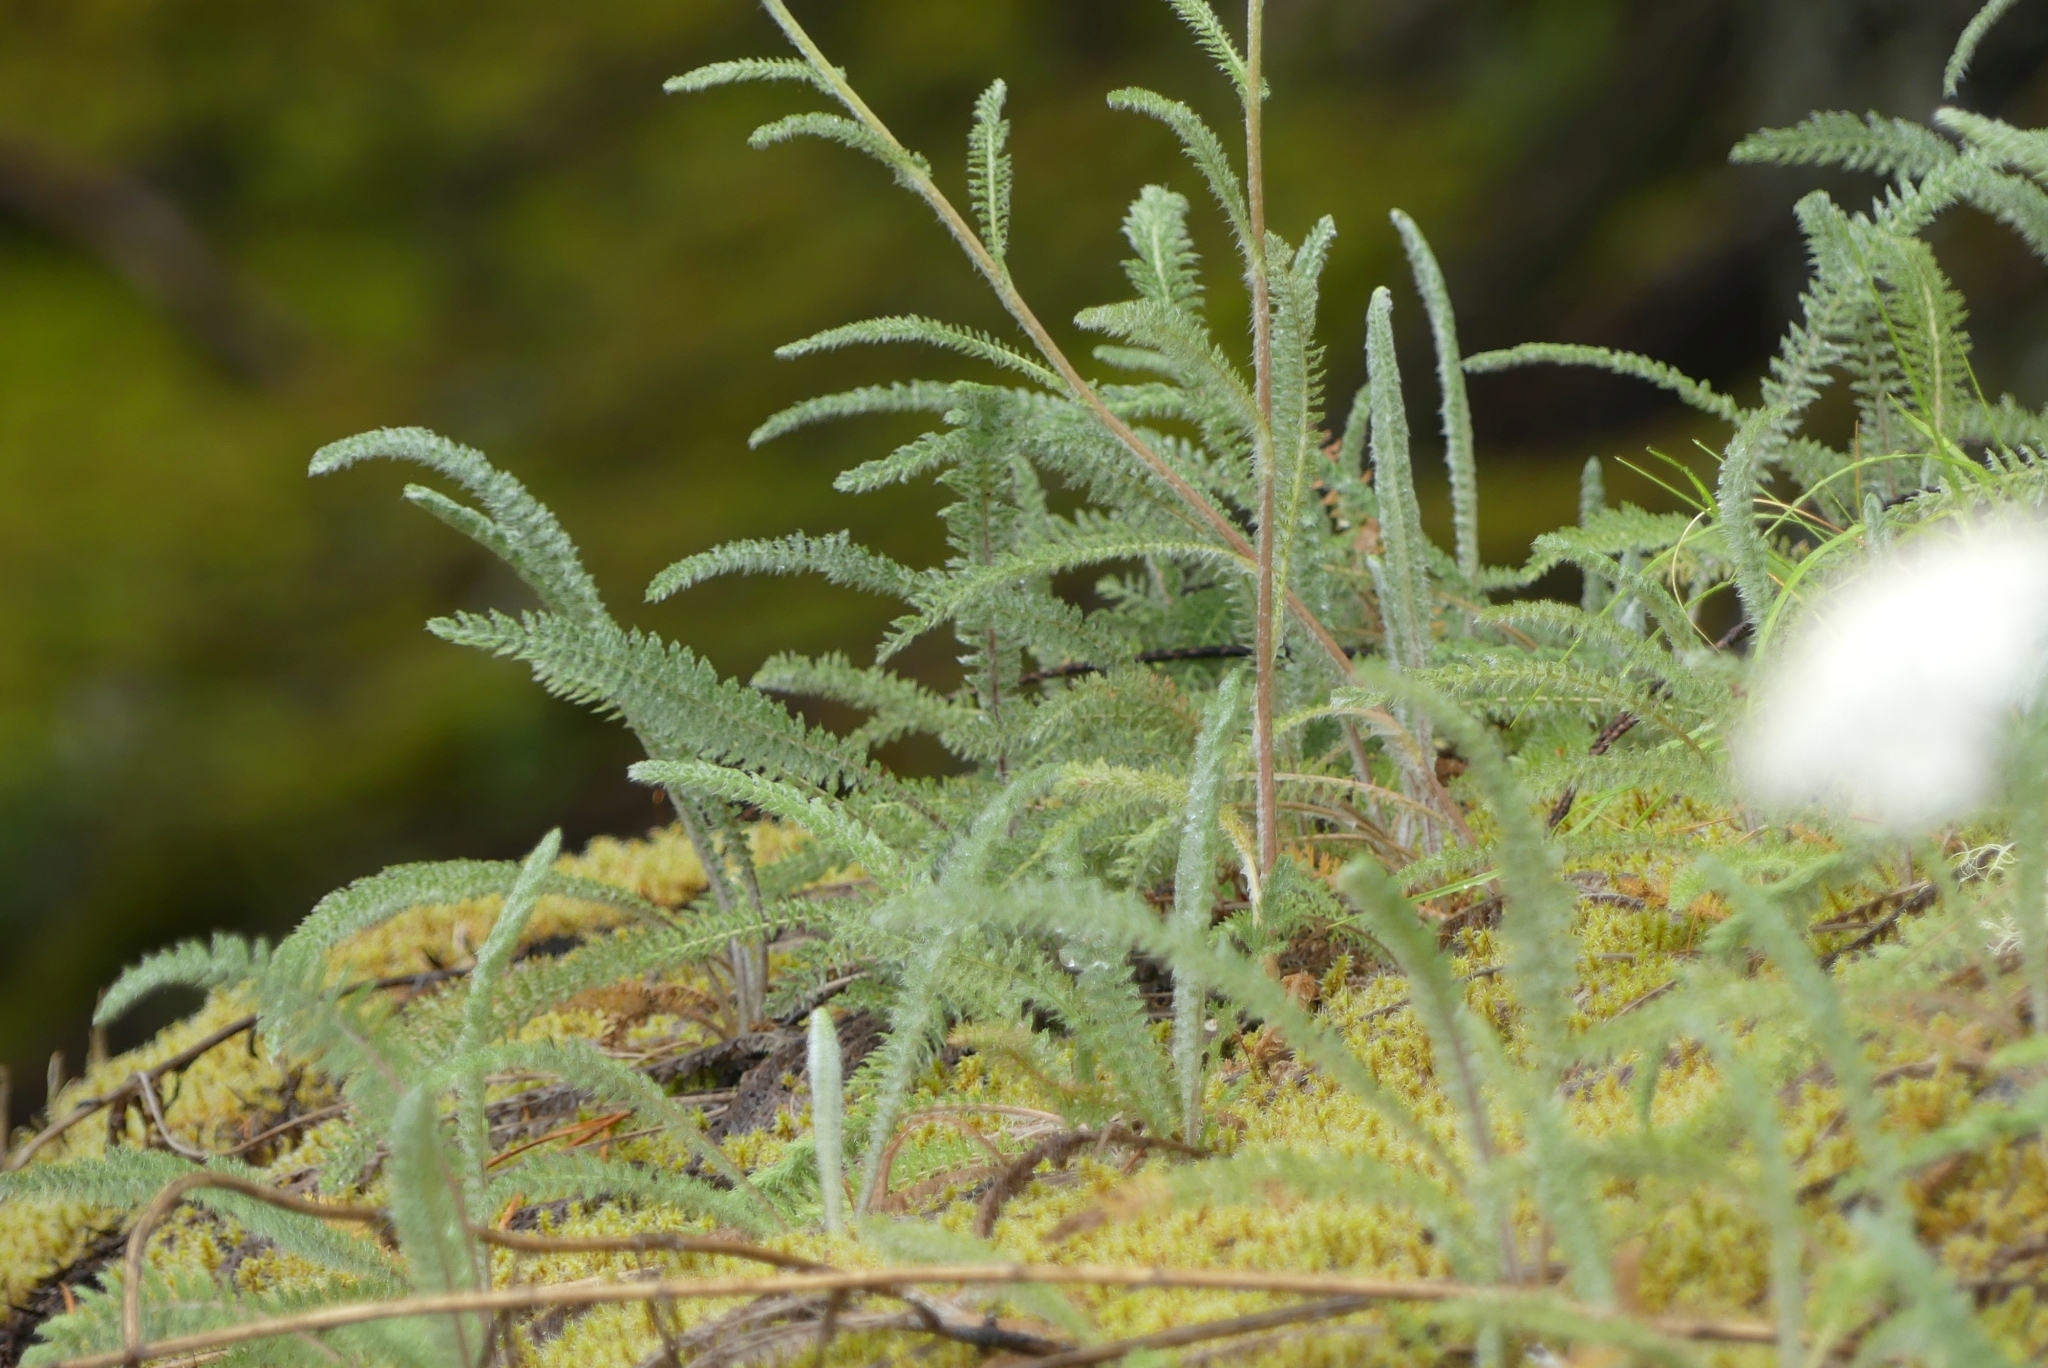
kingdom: Plantae
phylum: Tracheophyta
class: Magnoliopsida
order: Asterales
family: Asteraceae
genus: Achillea
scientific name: Achillea millefolium
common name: Yarrow
